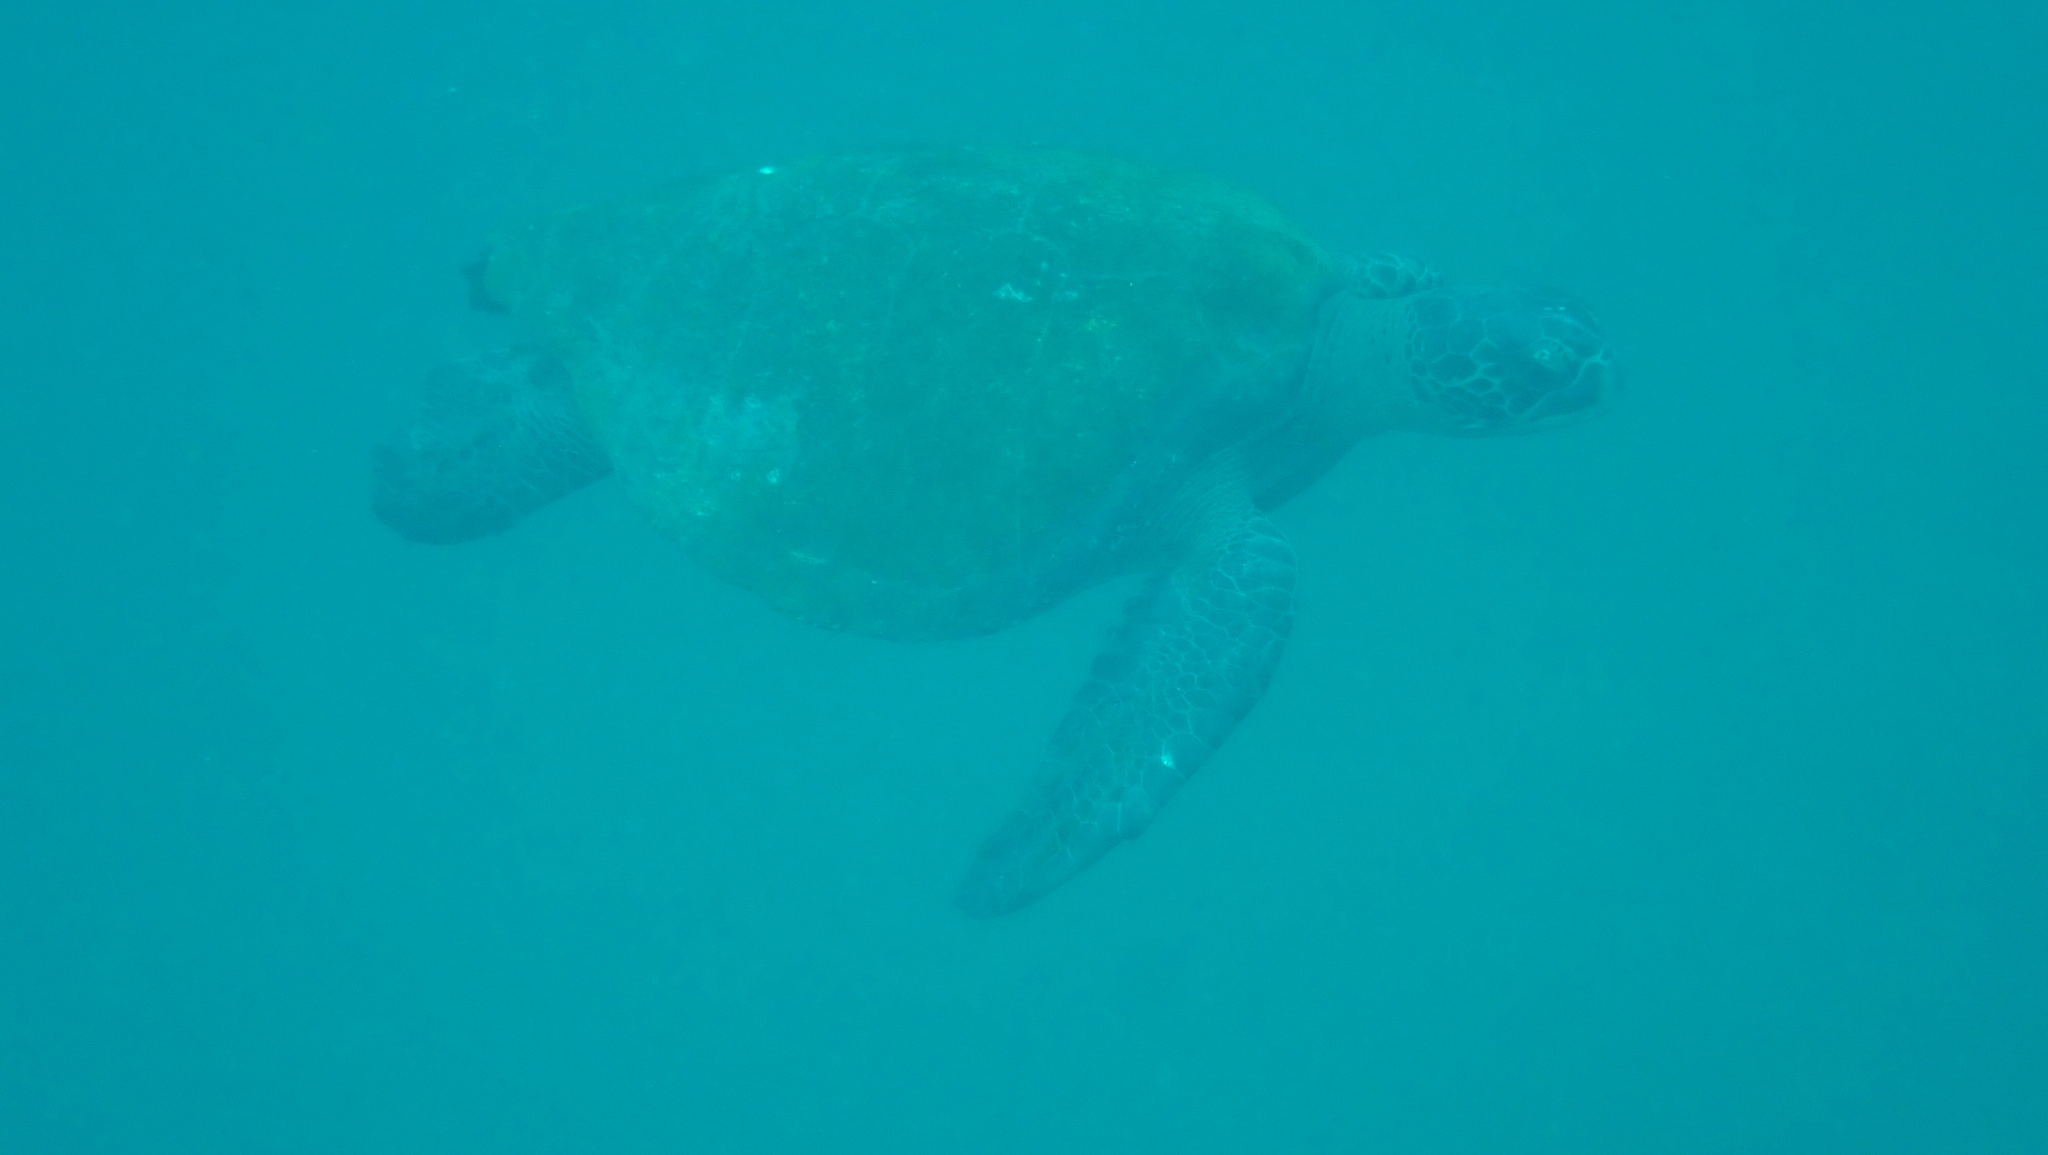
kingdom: Animalia
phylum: Chordata
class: Testudines
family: Cheloniidae
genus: Chelonia
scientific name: Chelonia mydas
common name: Green turtle
